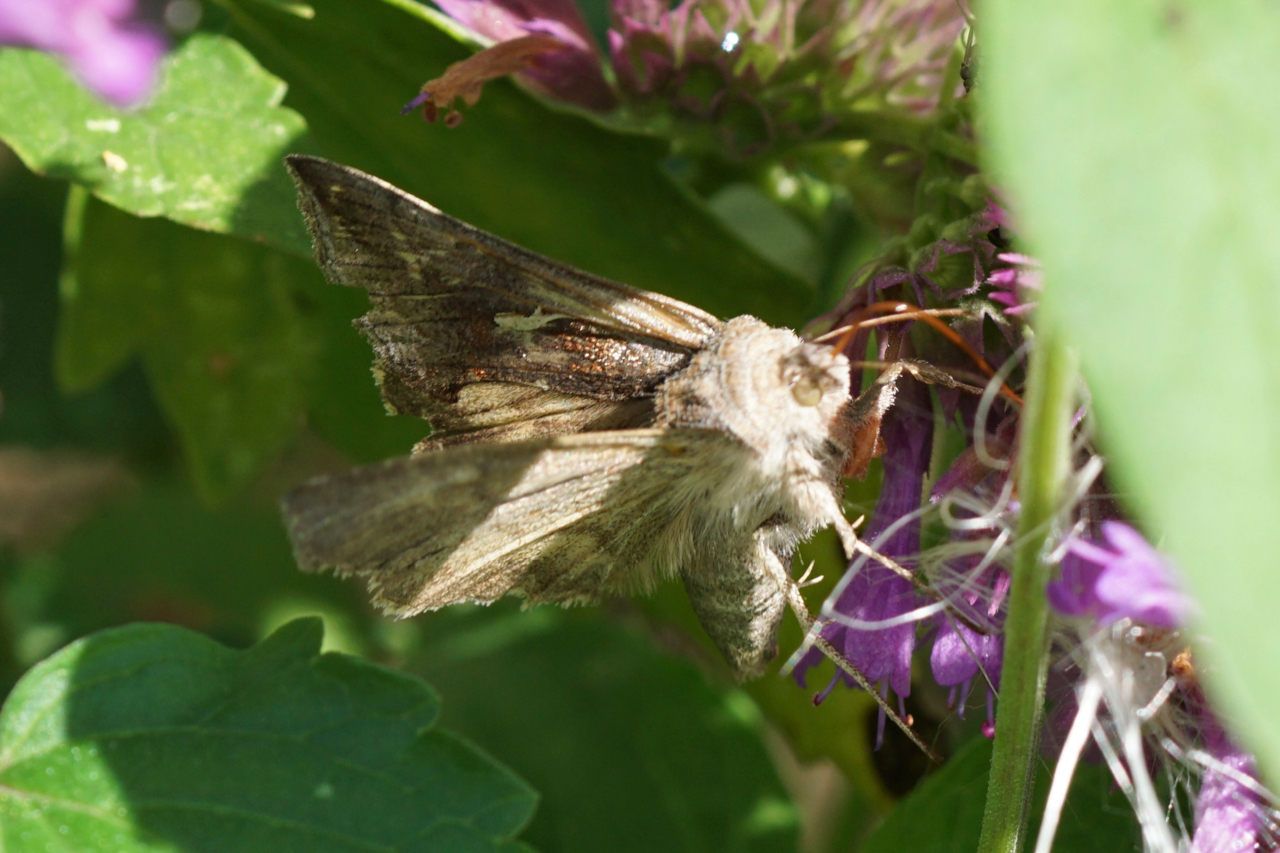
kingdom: Animalia
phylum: Arthropoda
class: Insecta
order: Lepidoptera
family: Noctuidae
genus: Anagrapha
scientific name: Anagrapha falcifera
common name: Celery looper
